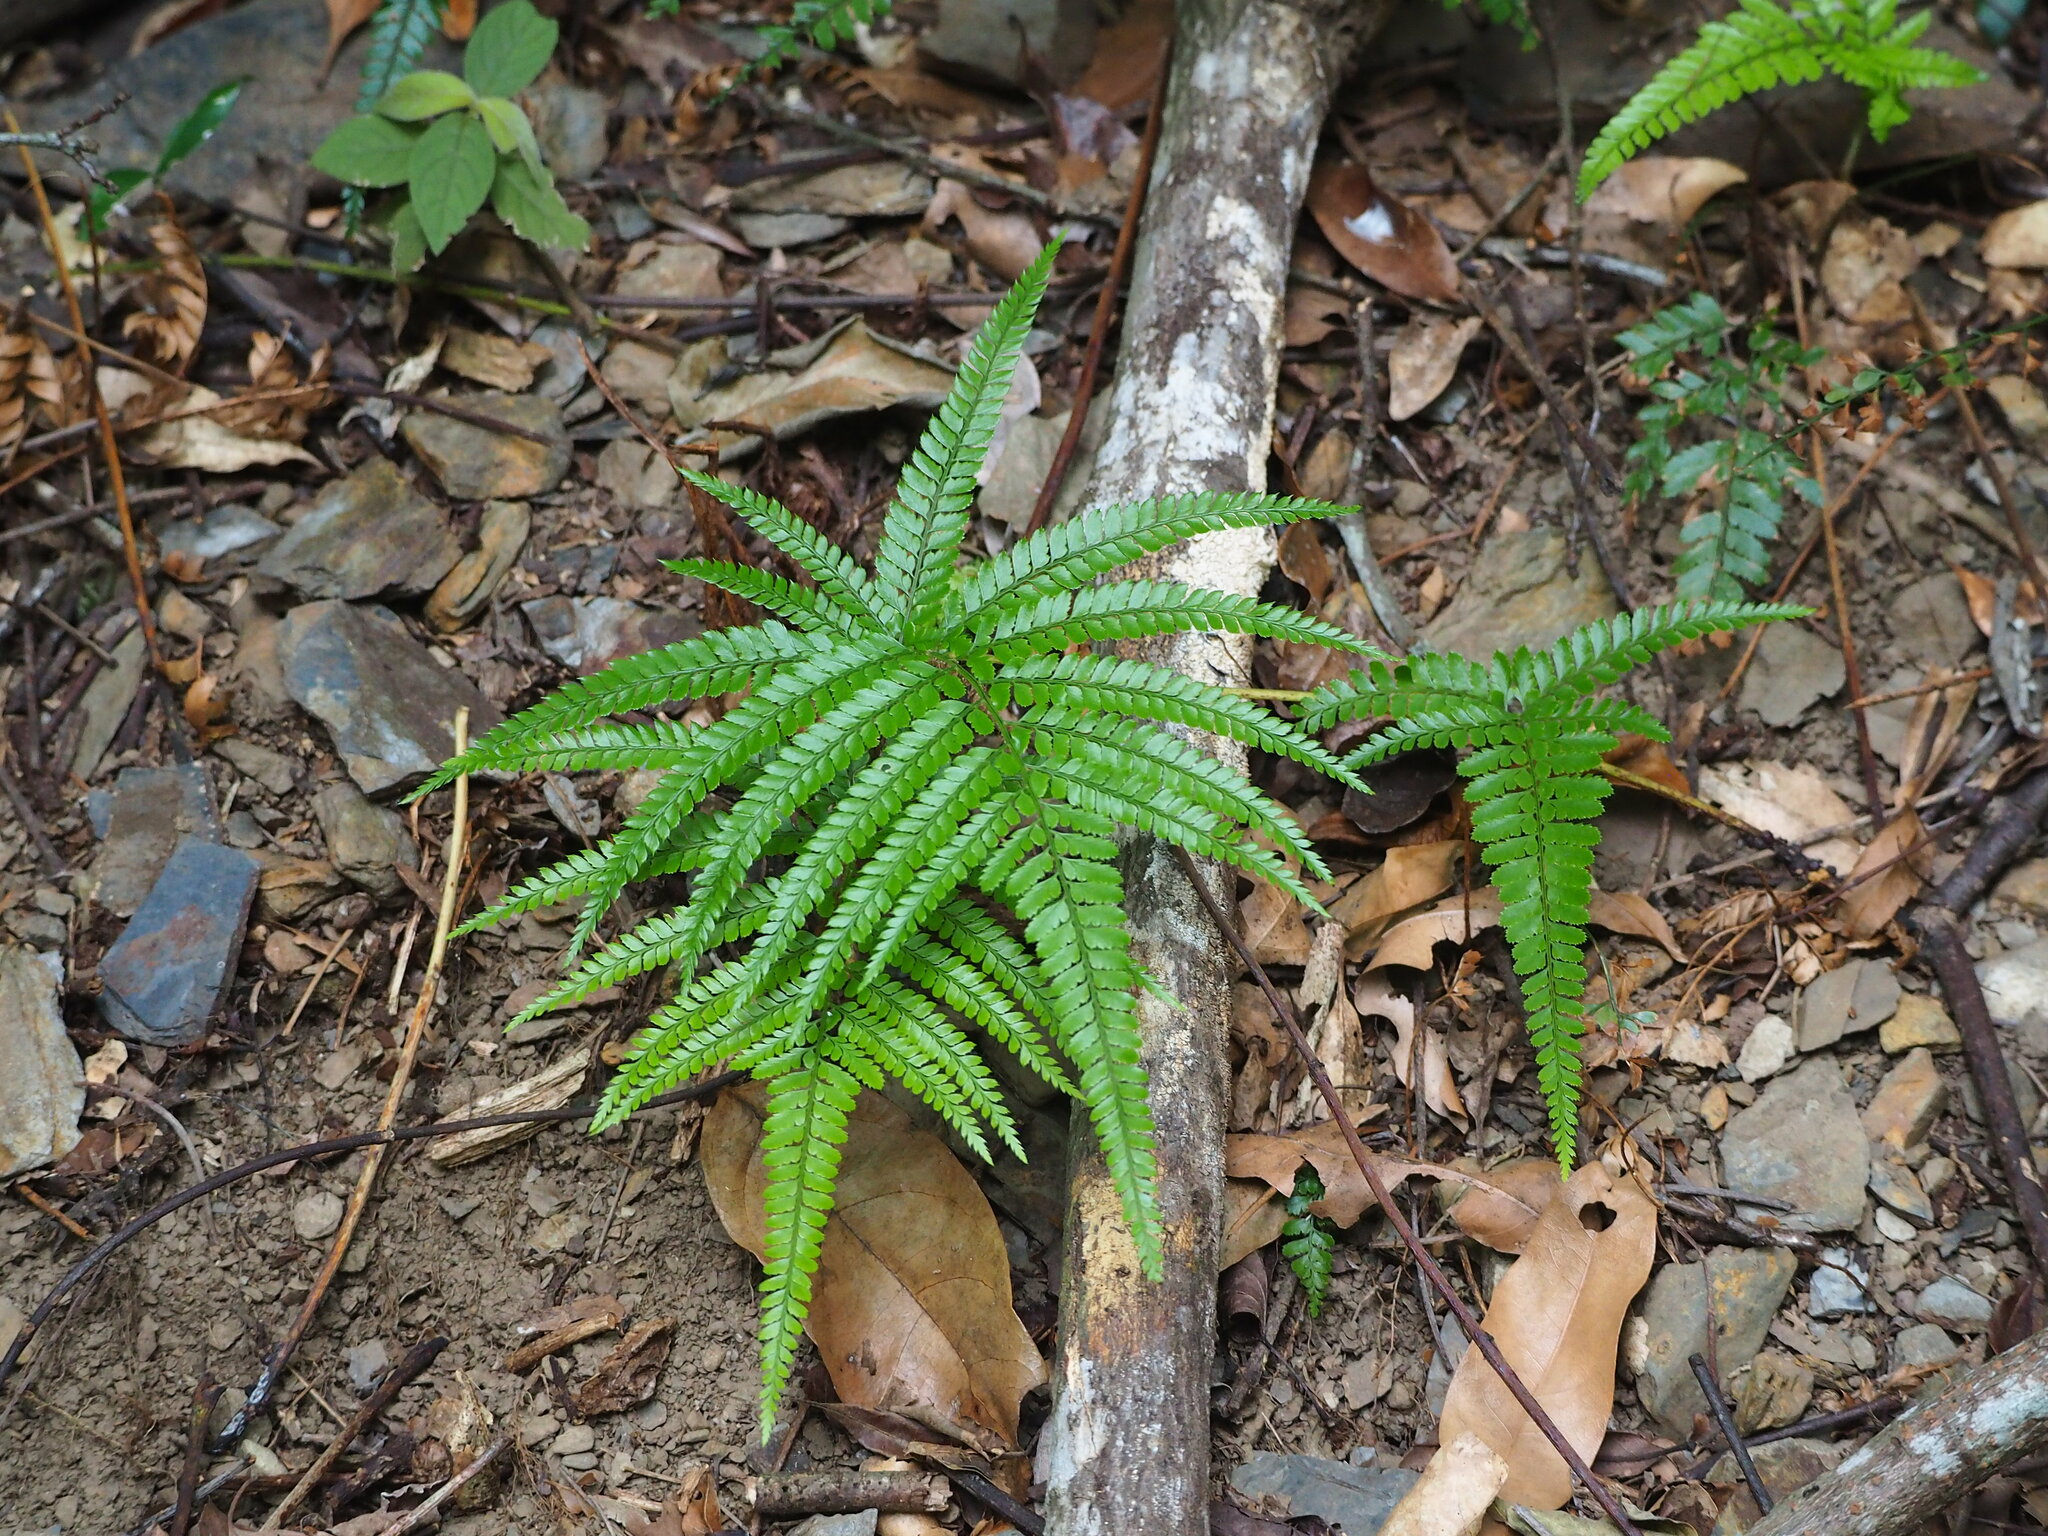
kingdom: Plantae
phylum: Tracheophyta
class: Polypodiopsida
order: Polypodiales
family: Dryopteridaceae
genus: Arachniodes
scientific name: Arachniodes aristata
